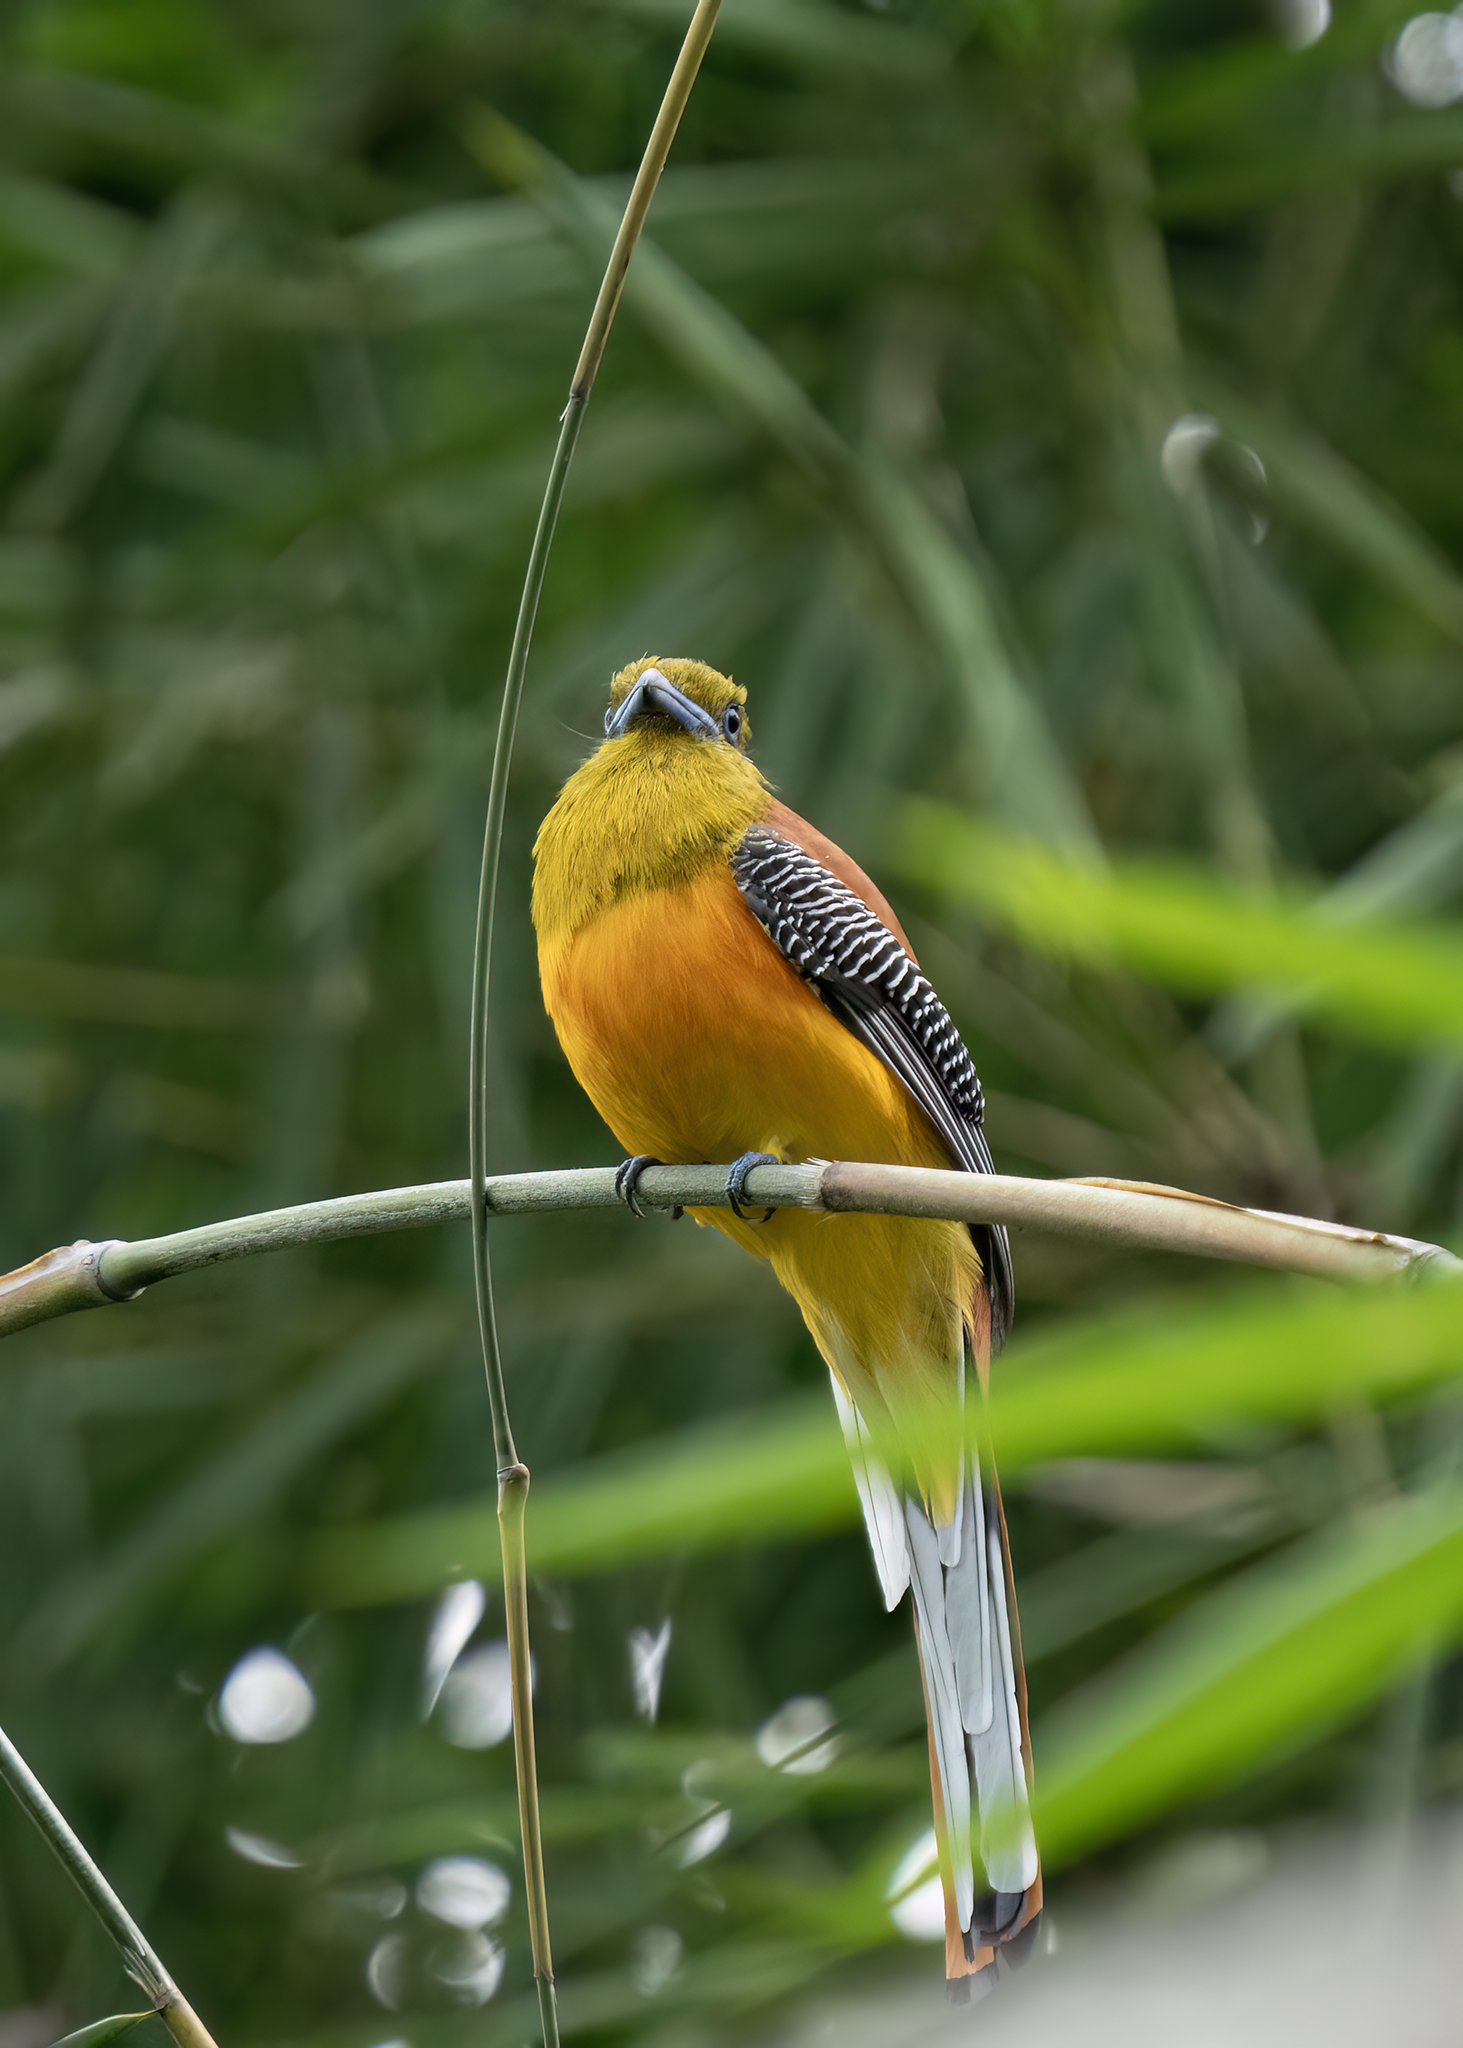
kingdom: Animalia
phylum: Chordata
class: Aves
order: Trogoniformes
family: Trogonidae
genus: Harpactes
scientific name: Harpactes oreskios
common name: Orange-breasted trogon
